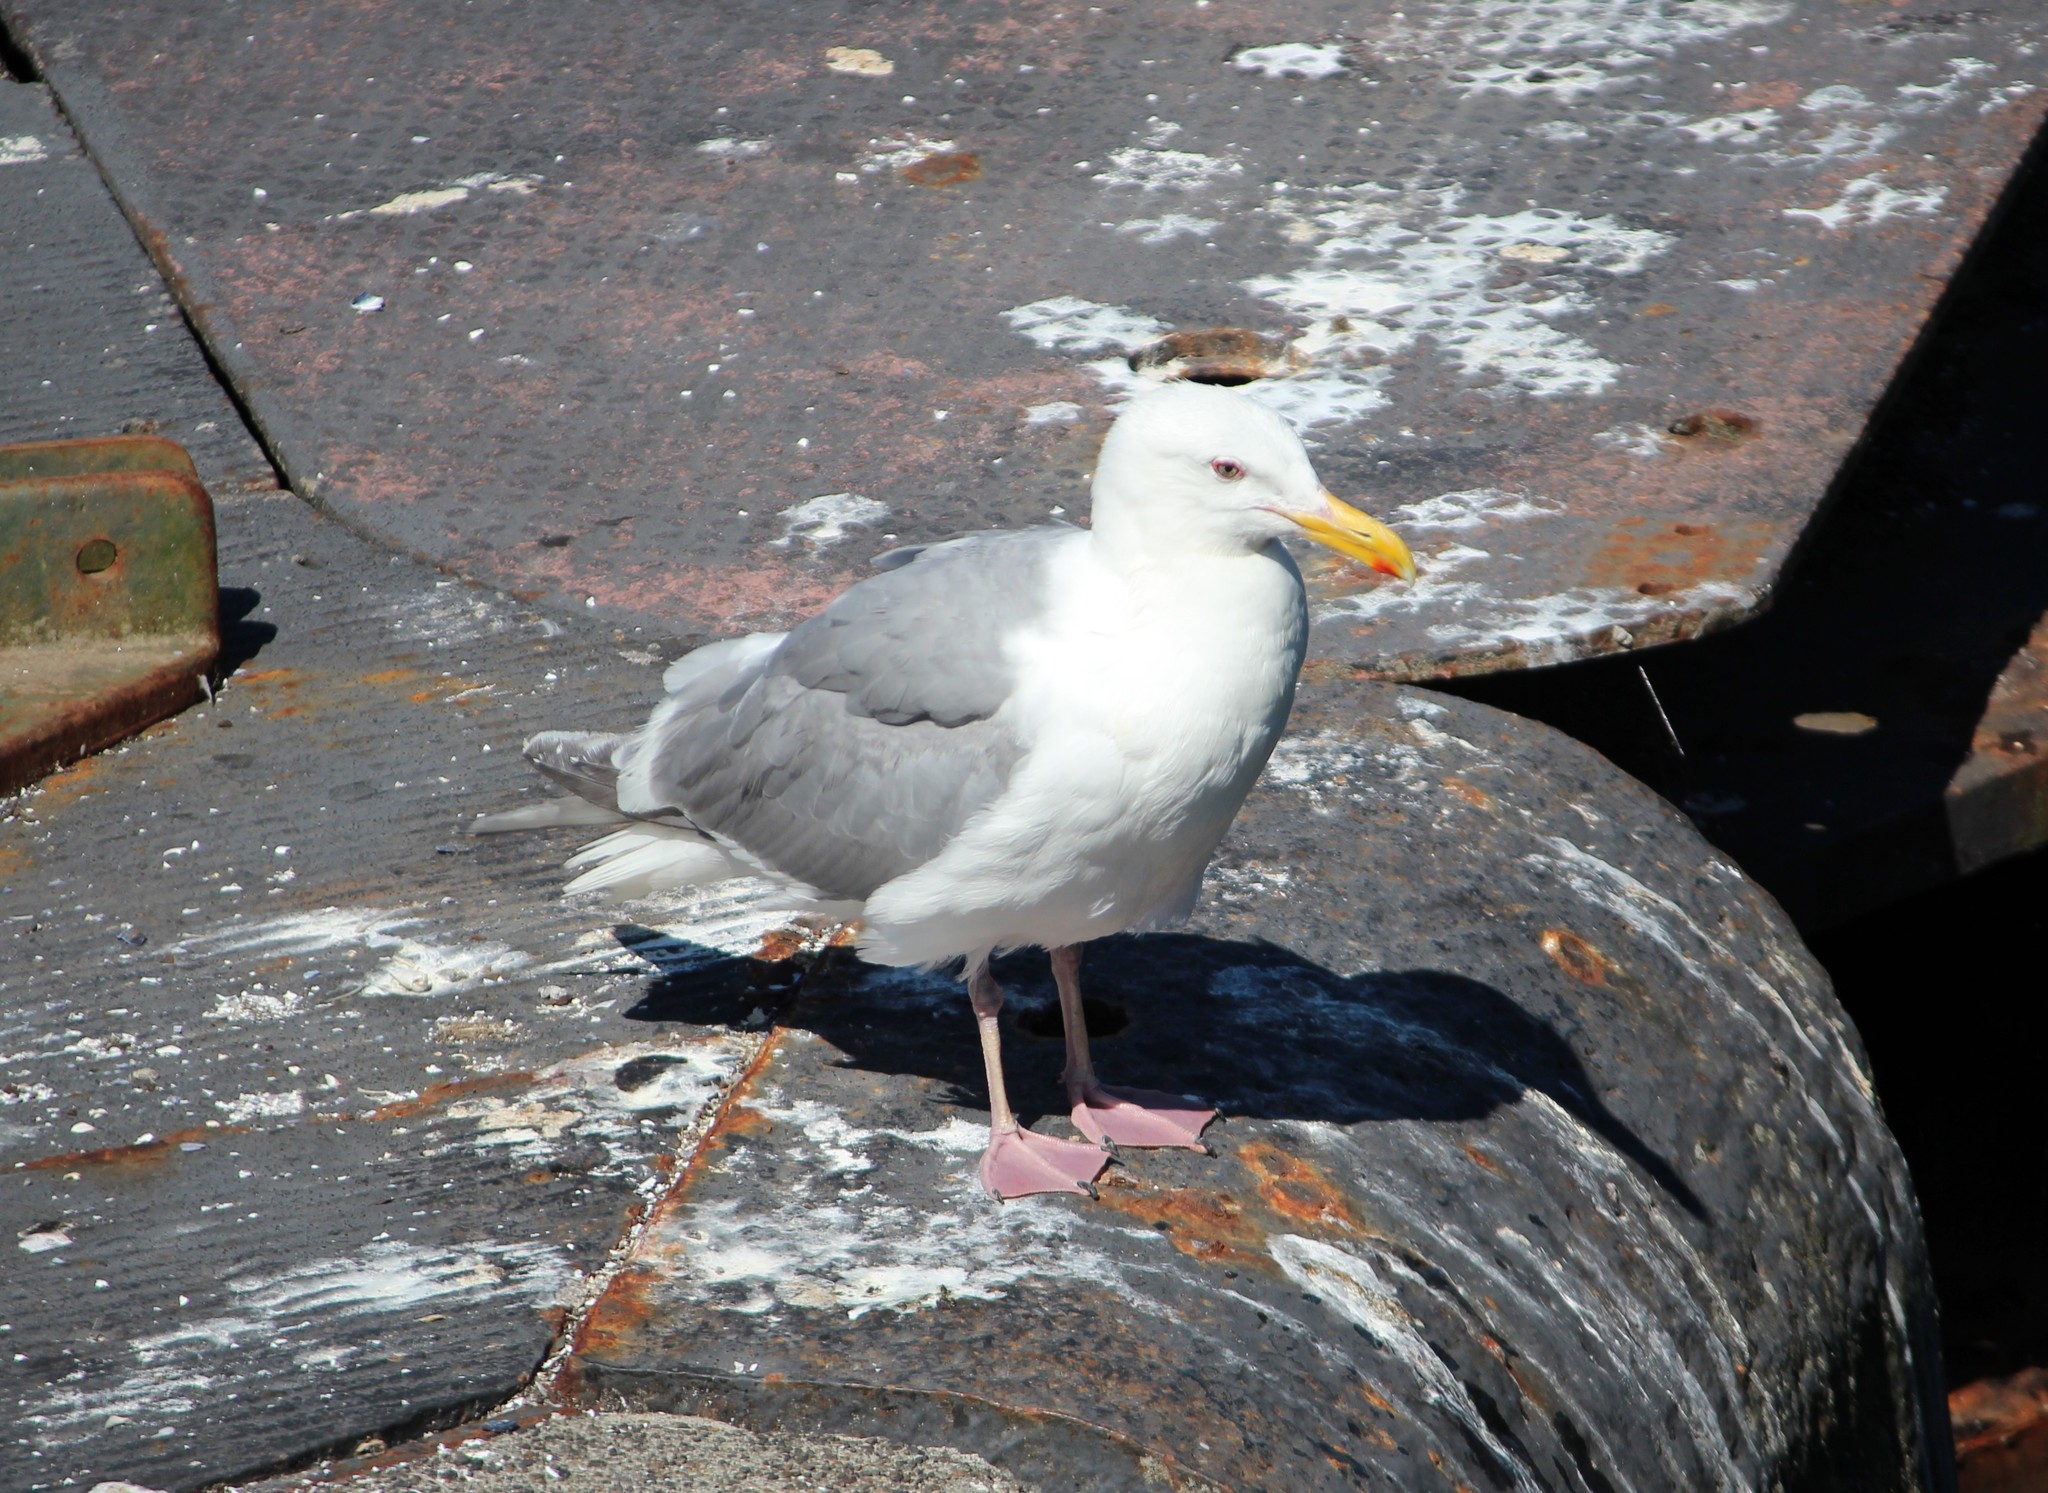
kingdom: Animalia
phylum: Chordata
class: Aves
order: Charadriiformes
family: Laridae
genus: Larus
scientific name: Larus
